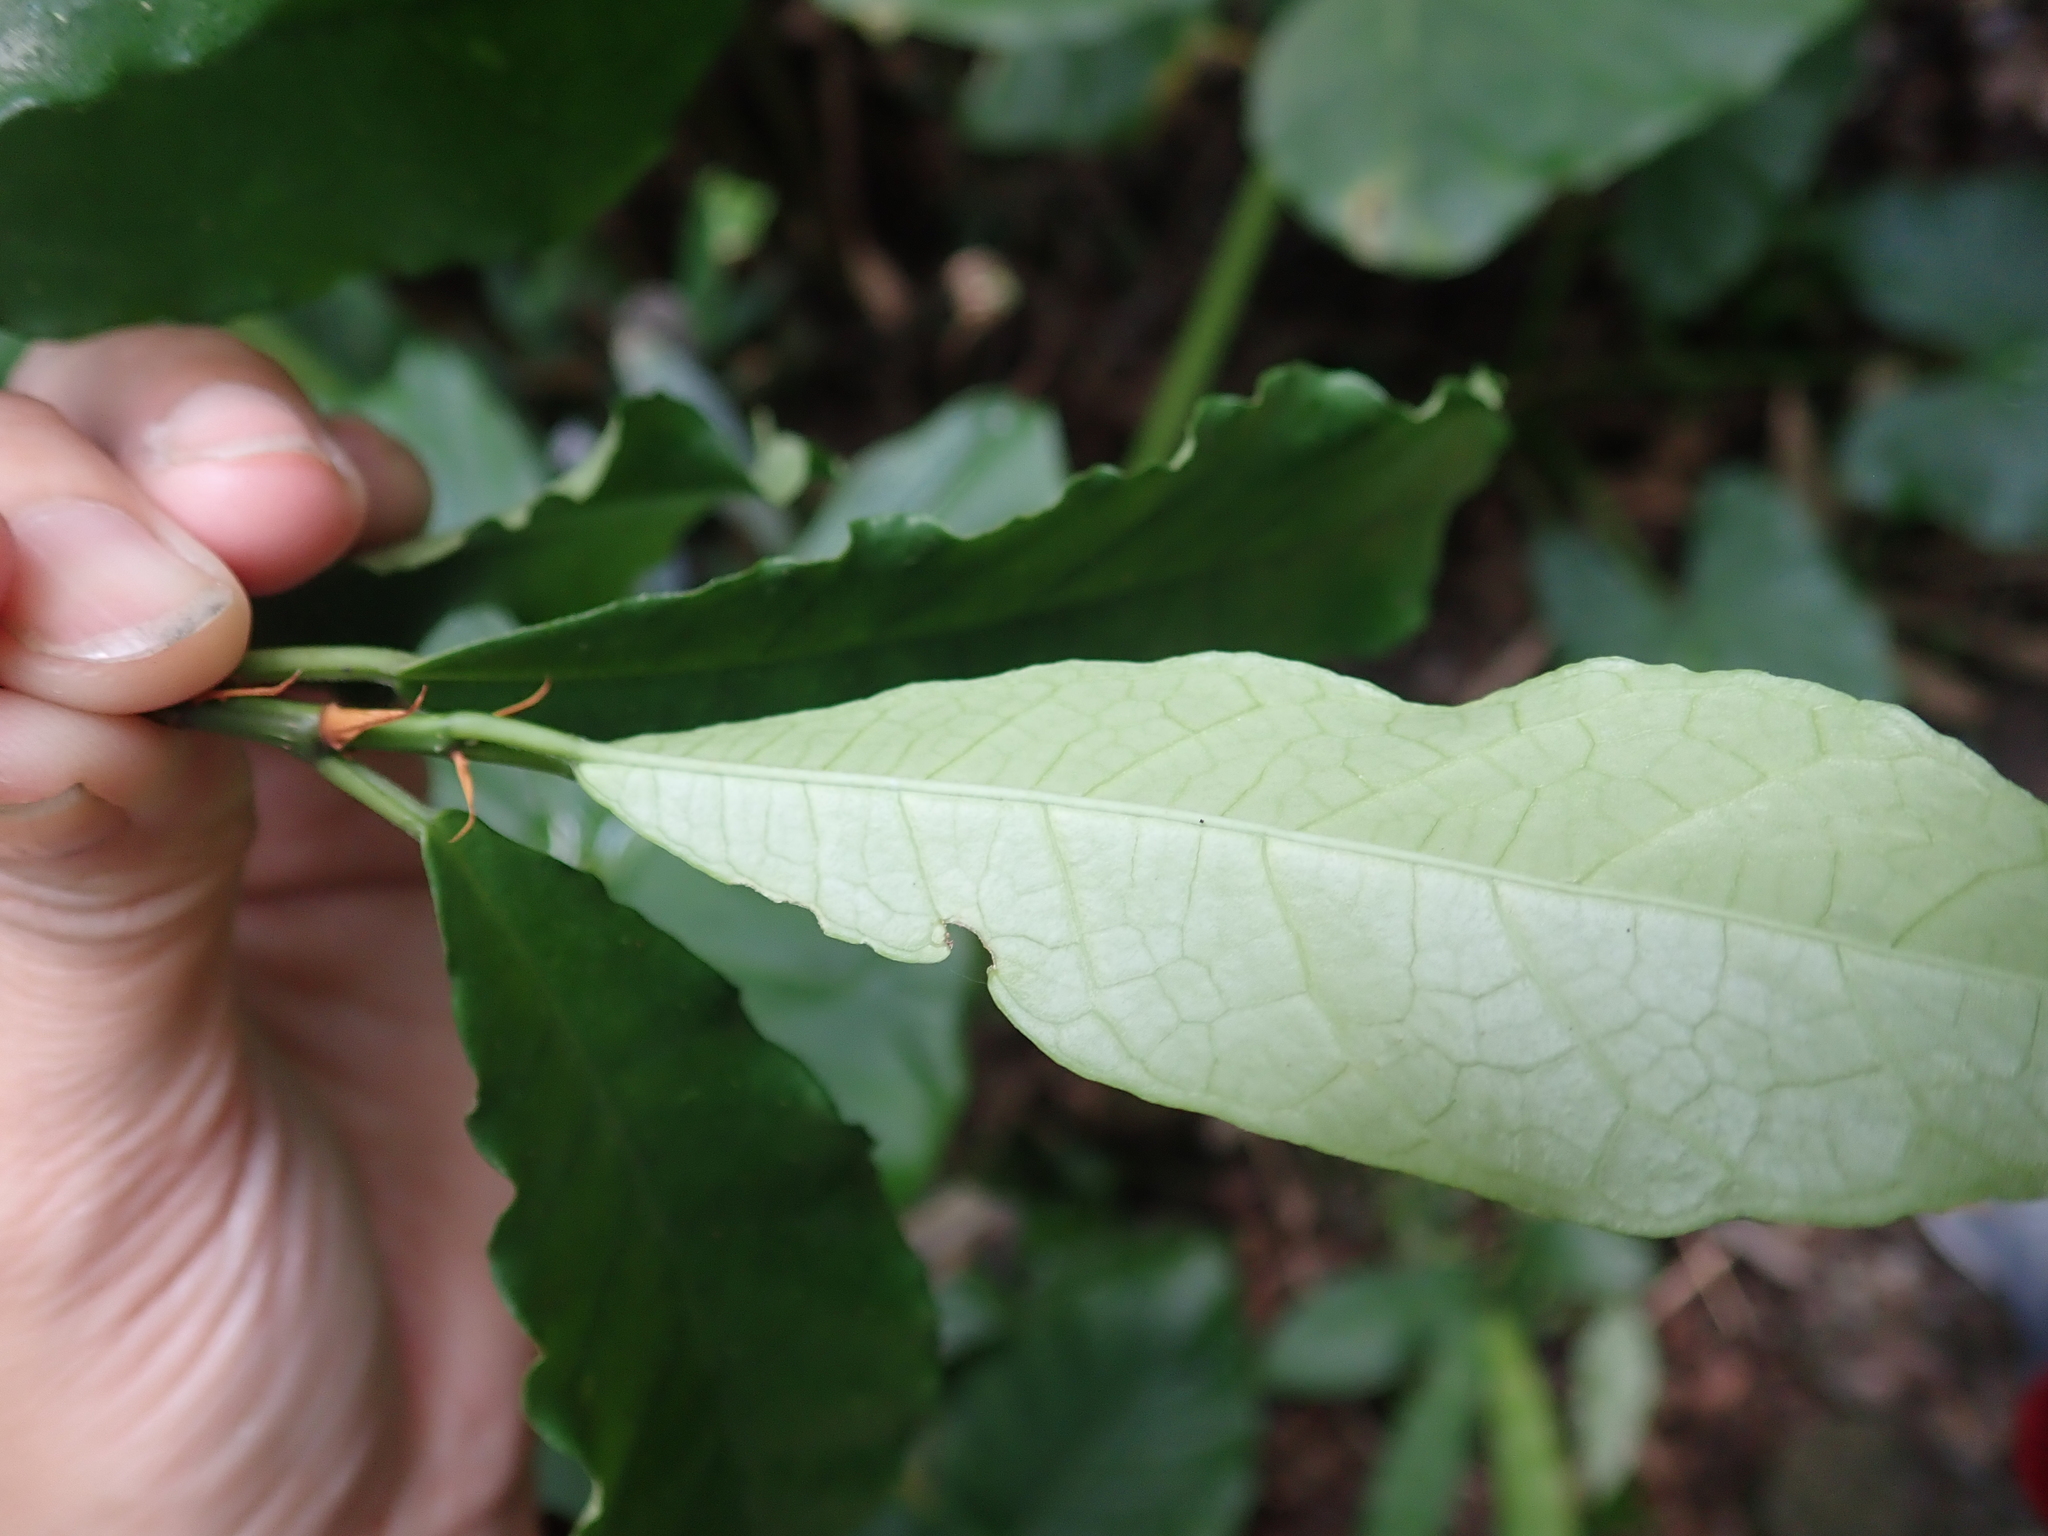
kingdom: Plantae
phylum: Tracheophyta
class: Magnoliopsida
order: Rosales
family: Moraceae
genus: Ficus
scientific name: Ficus formosana
